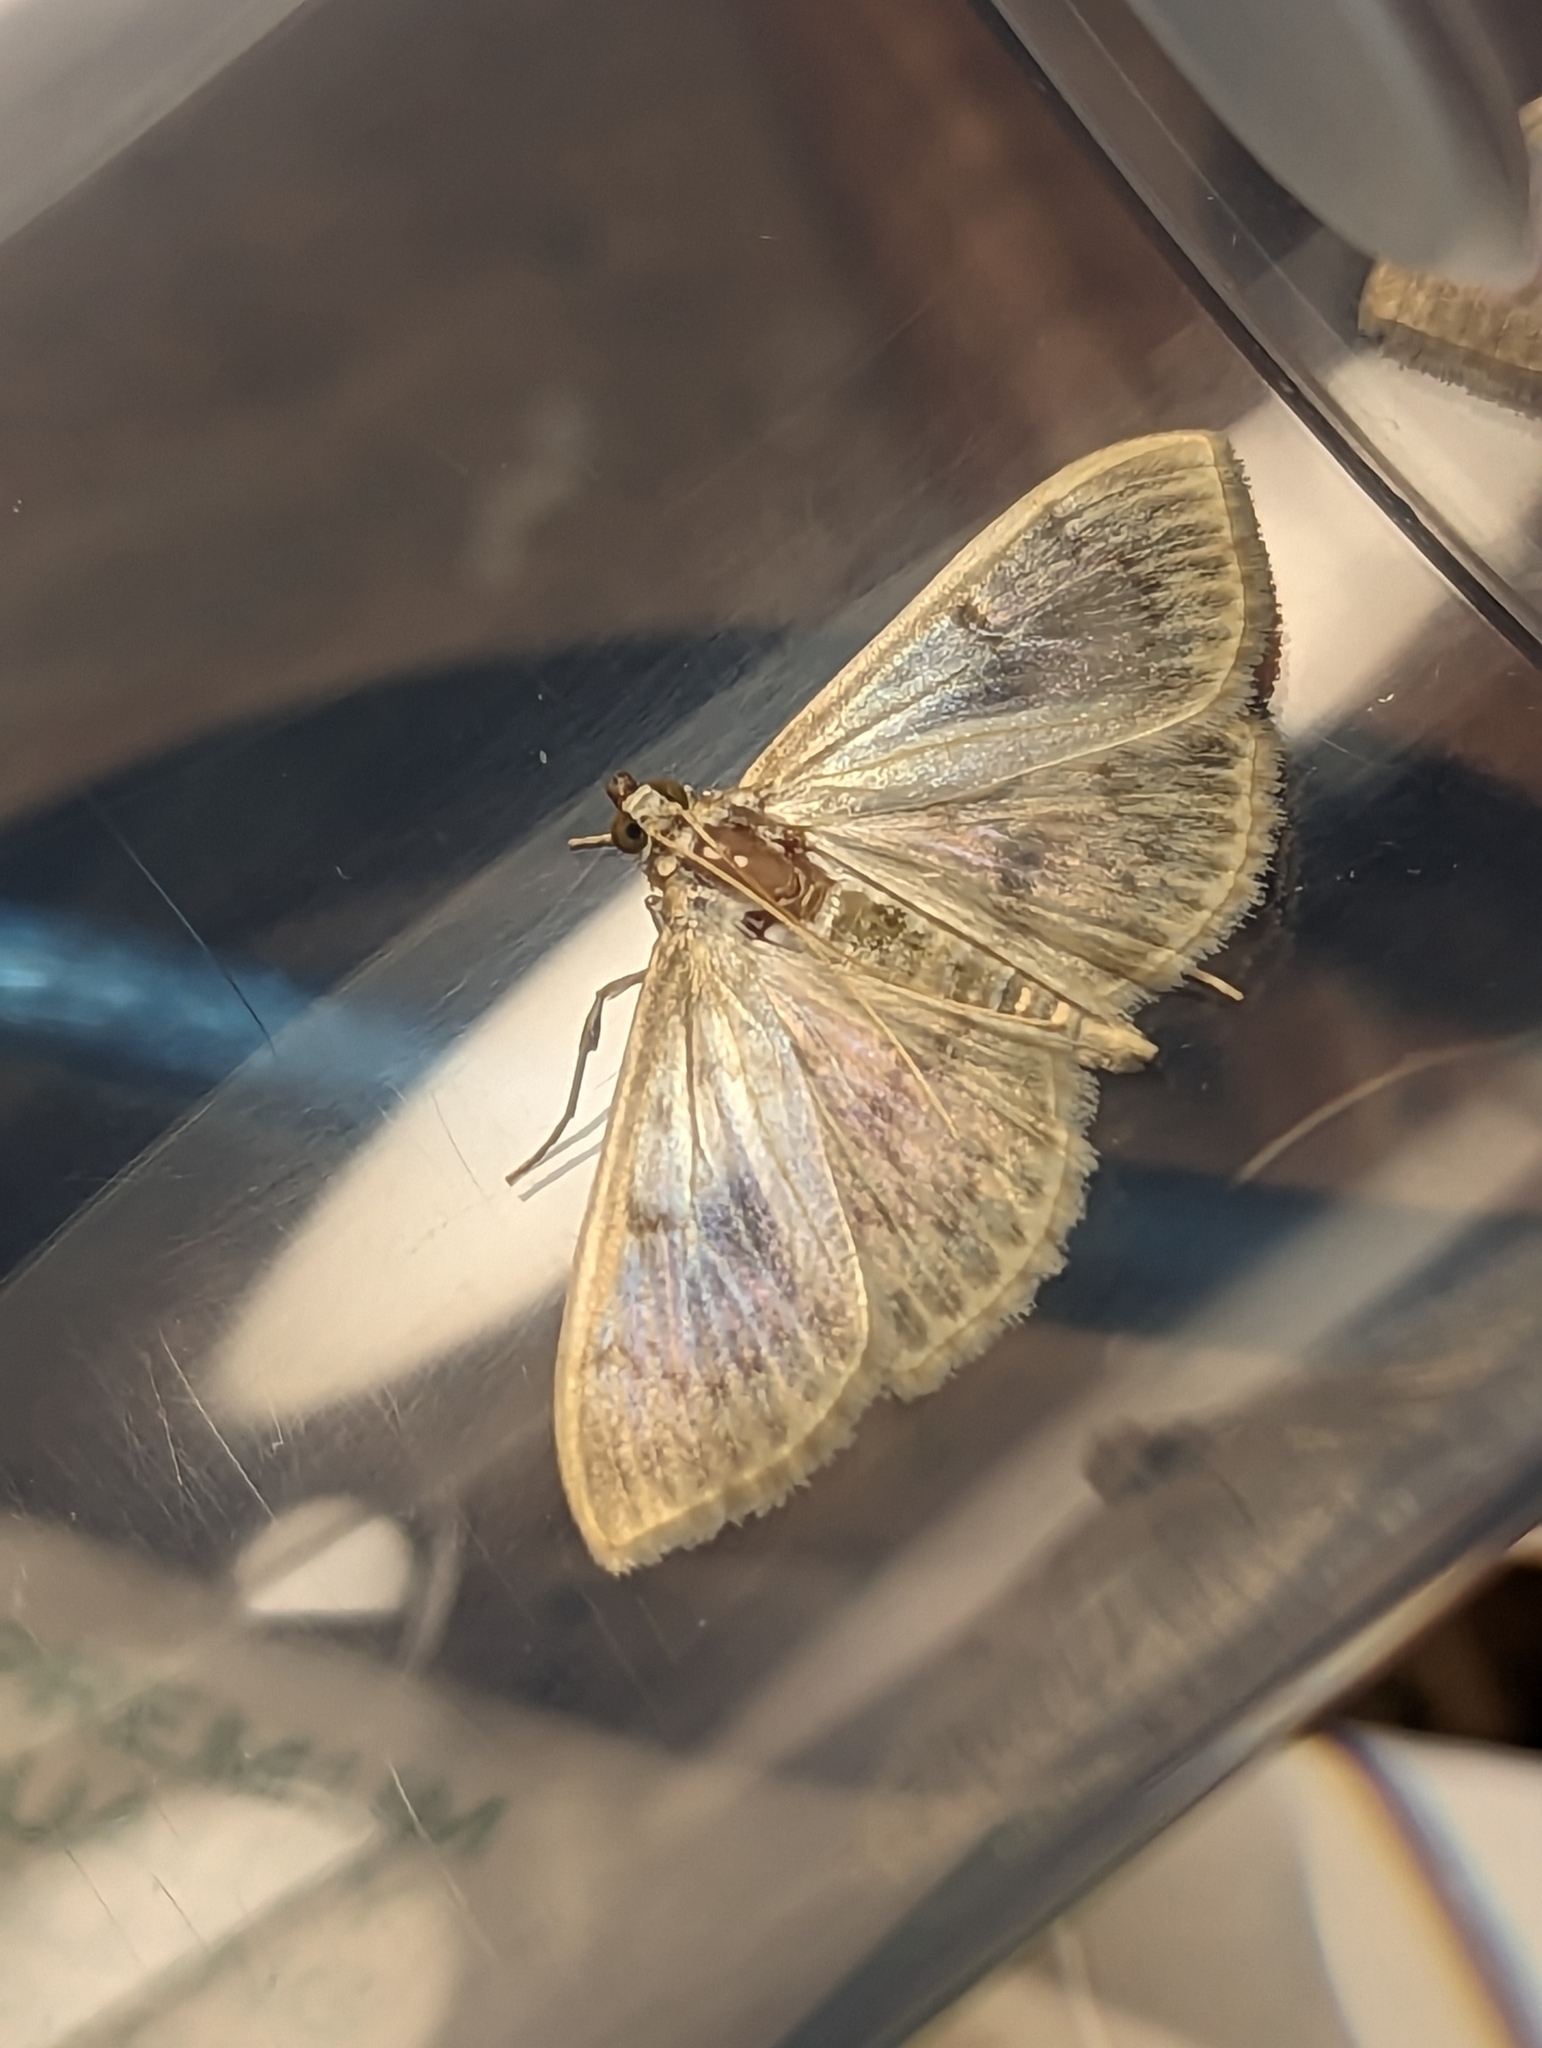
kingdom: Animalia
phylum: Arthropoda
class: Insecta
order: Lepidoptera
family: Crambidae
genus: Patania
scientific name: Patania ruralis
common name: Mother of pearl
